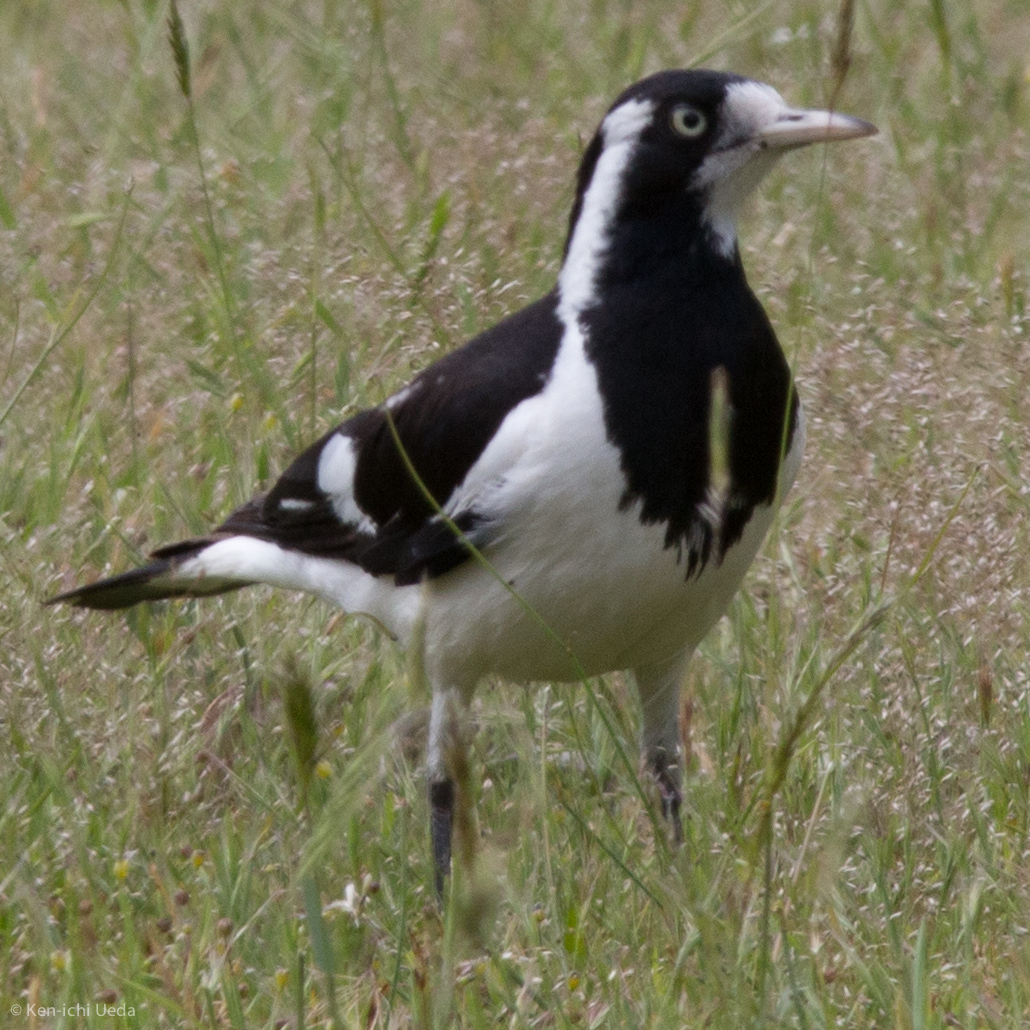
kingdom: Animalia
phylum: Chordata
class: Aves
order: Passeriformes
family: Monarchidae
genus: Grallina
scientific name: Grallina cyanoleuca
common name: Magpie-lark
